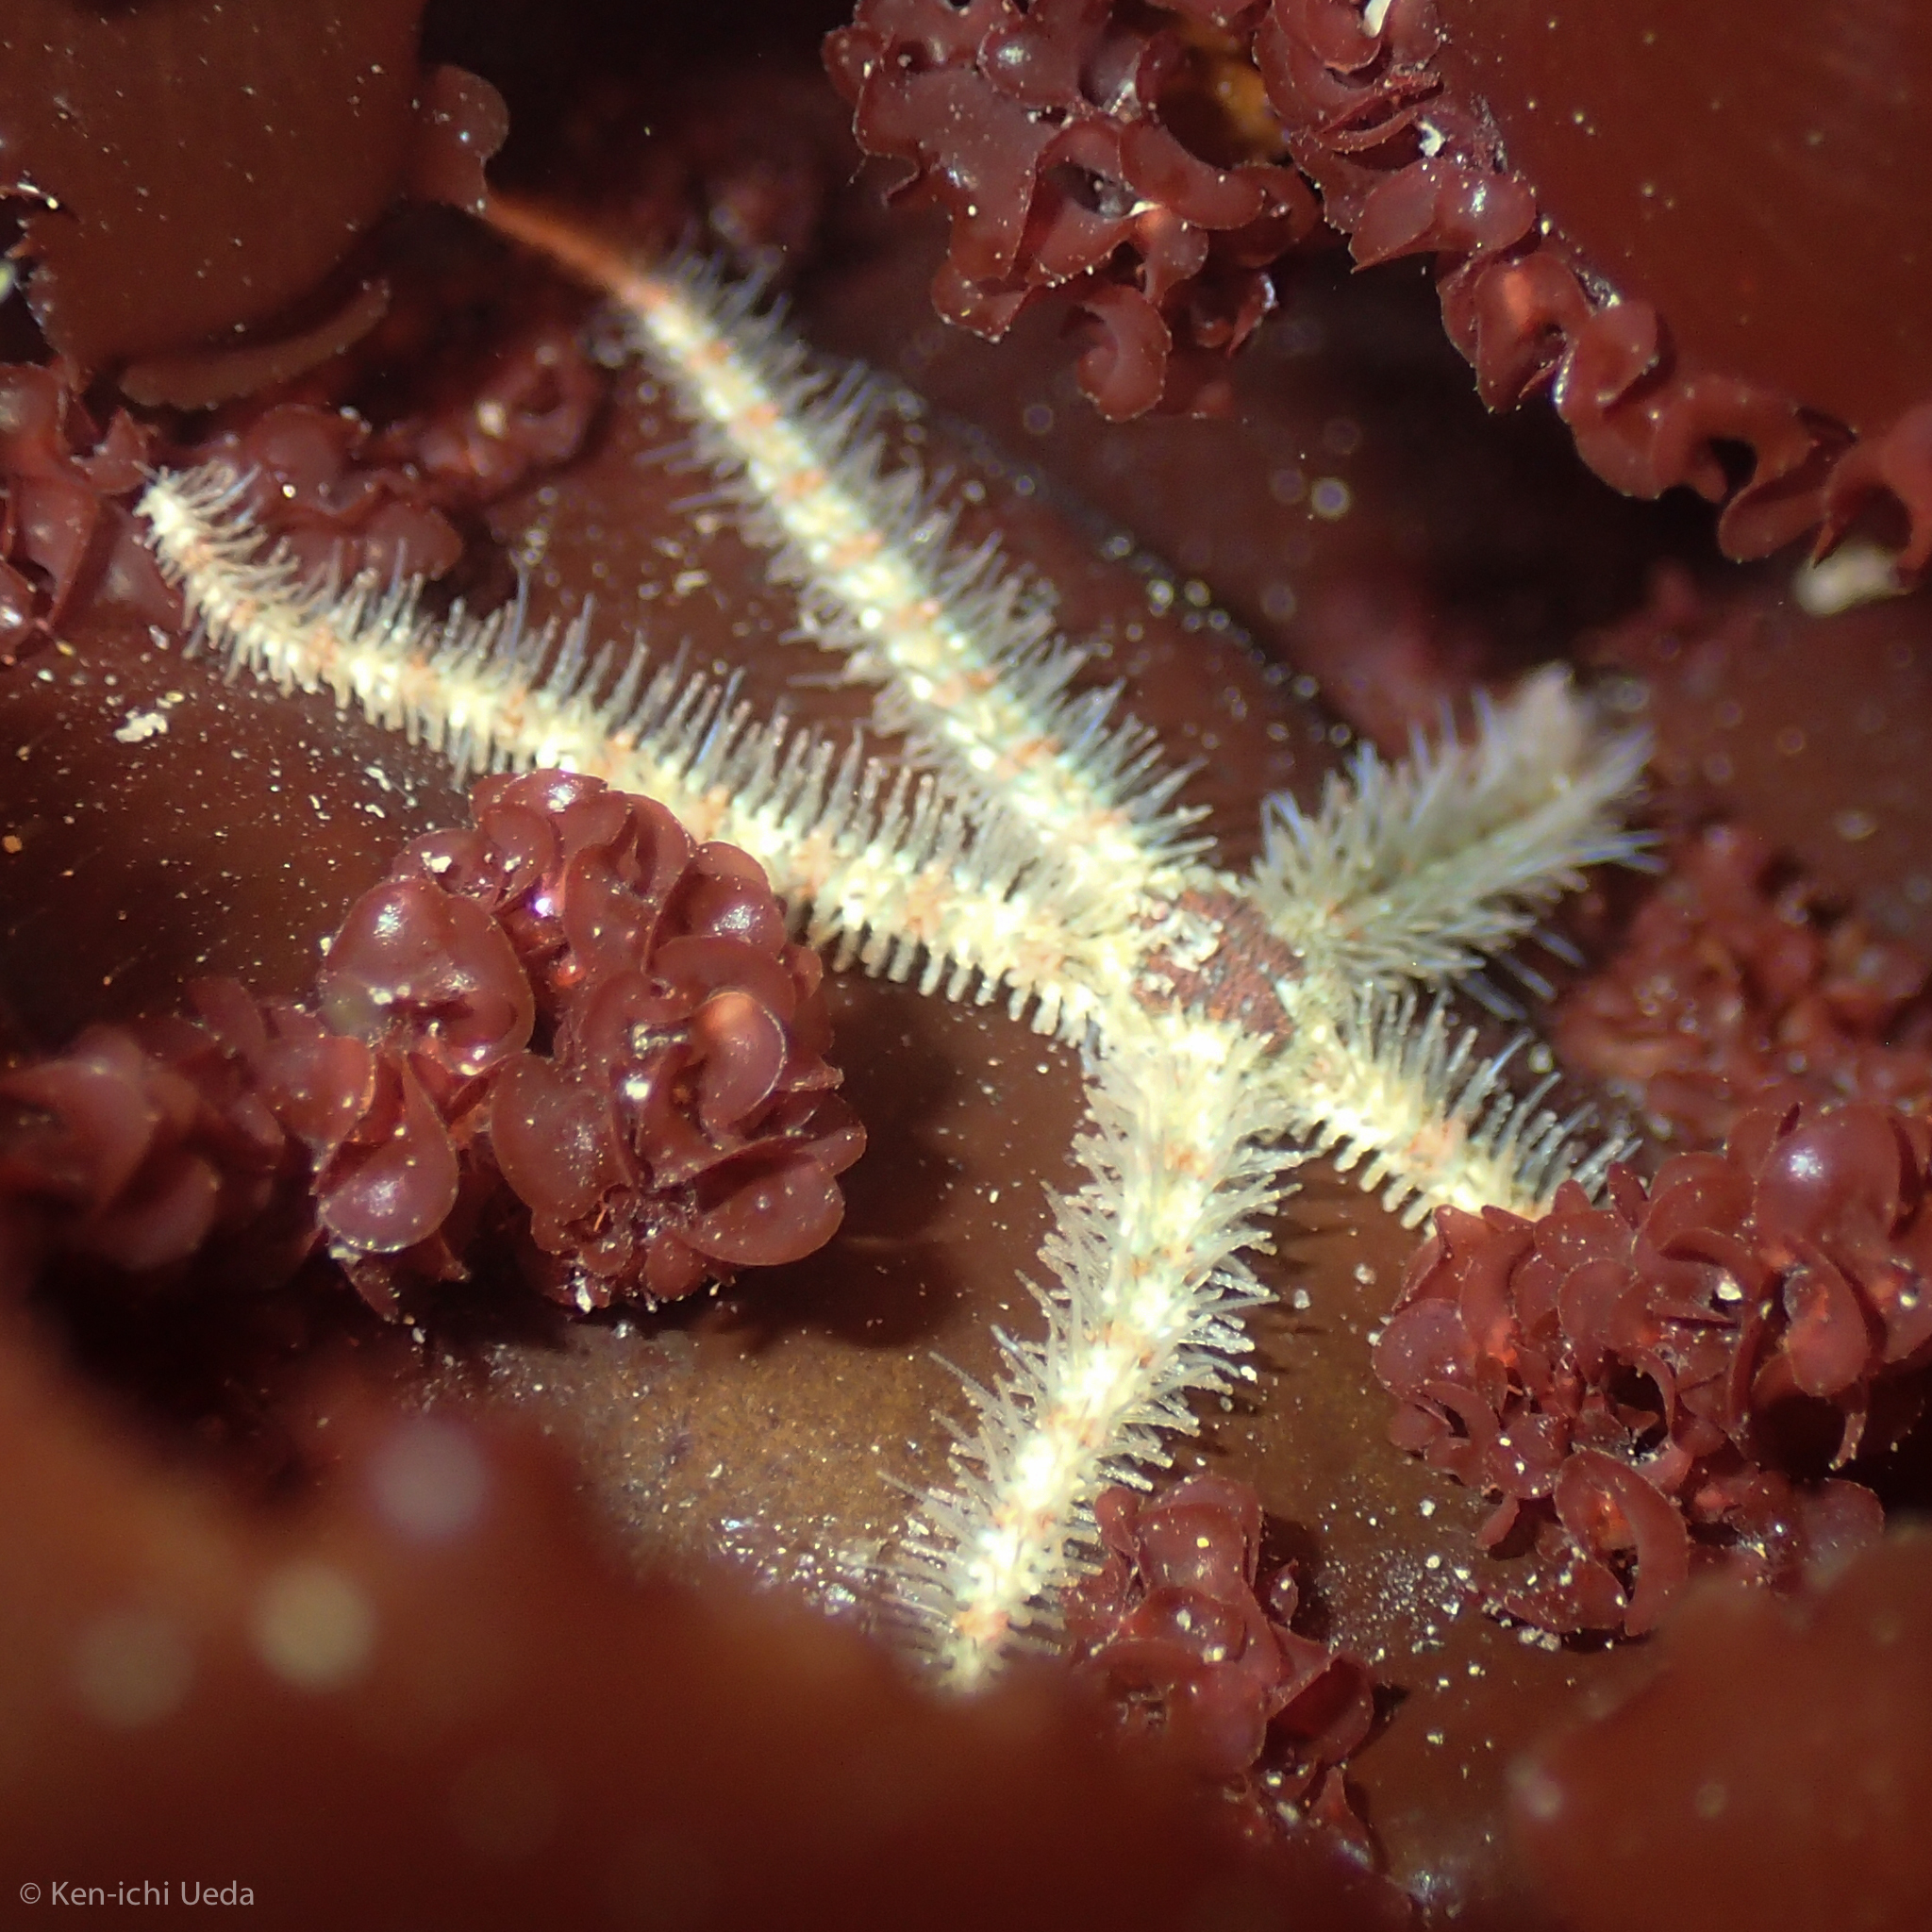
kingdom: Animalia
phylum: Echinodermata
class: Ophiuroidea
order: Amphilepidida
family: Ophiotrichidae
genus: Ophiothrix
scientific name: Ophiothrix spiculata
